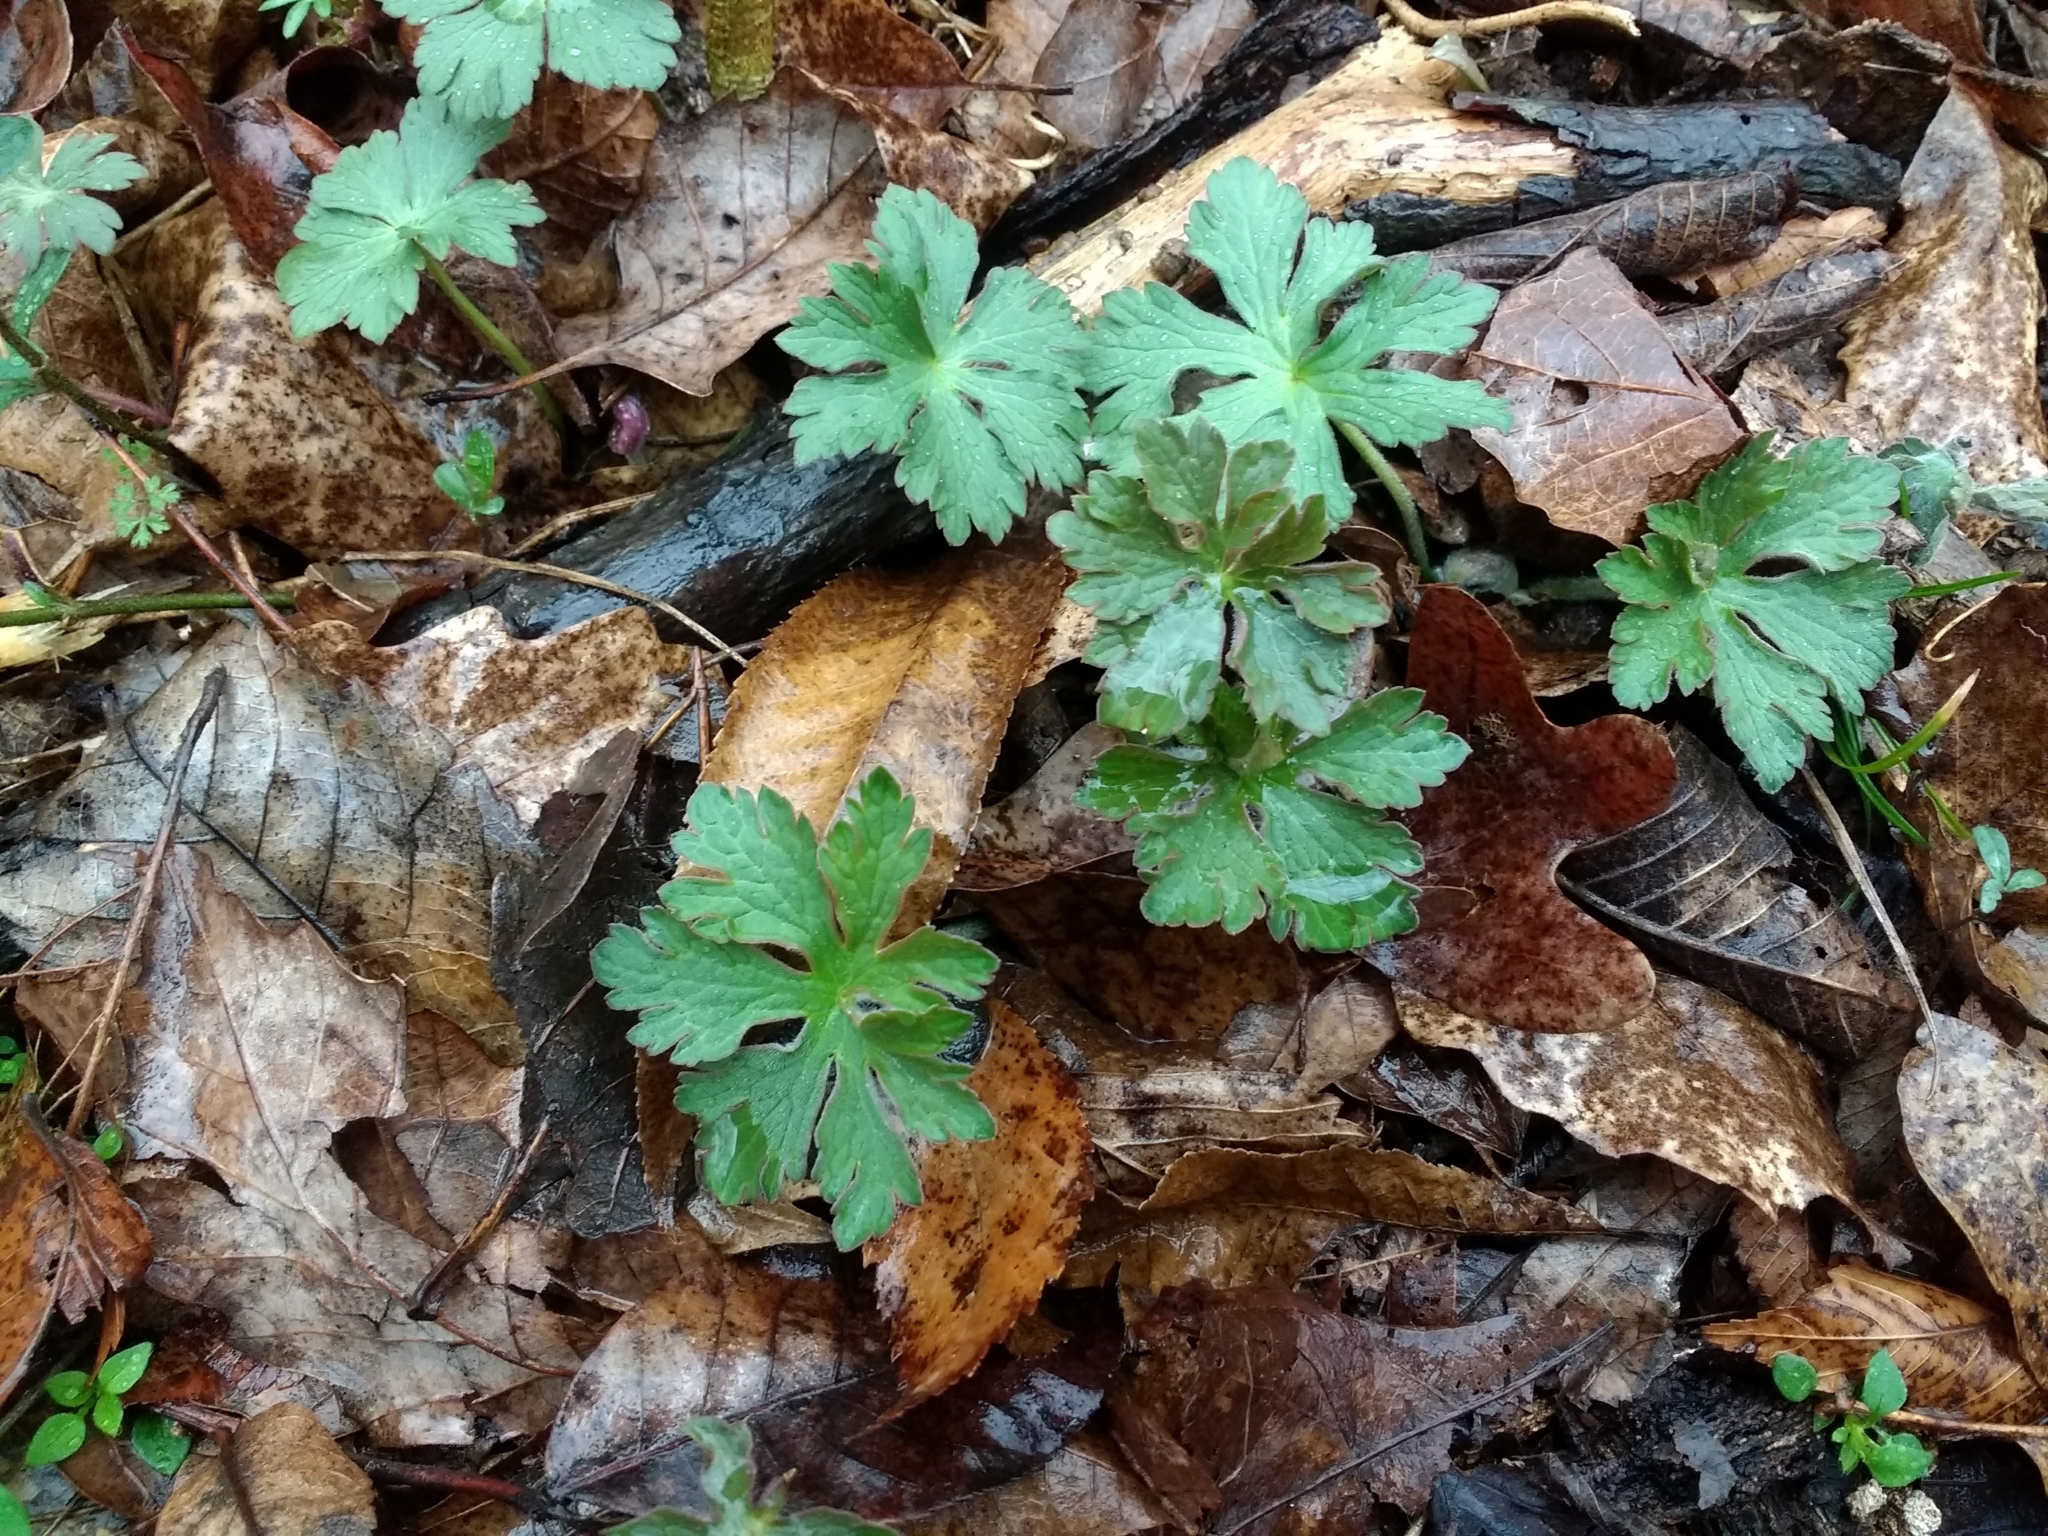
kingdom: Plantae
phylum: Tracheophyta
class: Magnoliopsida
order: Geraniales
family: Geraniaceae
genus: Geranium
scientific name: Geranium maculatum
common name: Spotted geranium
